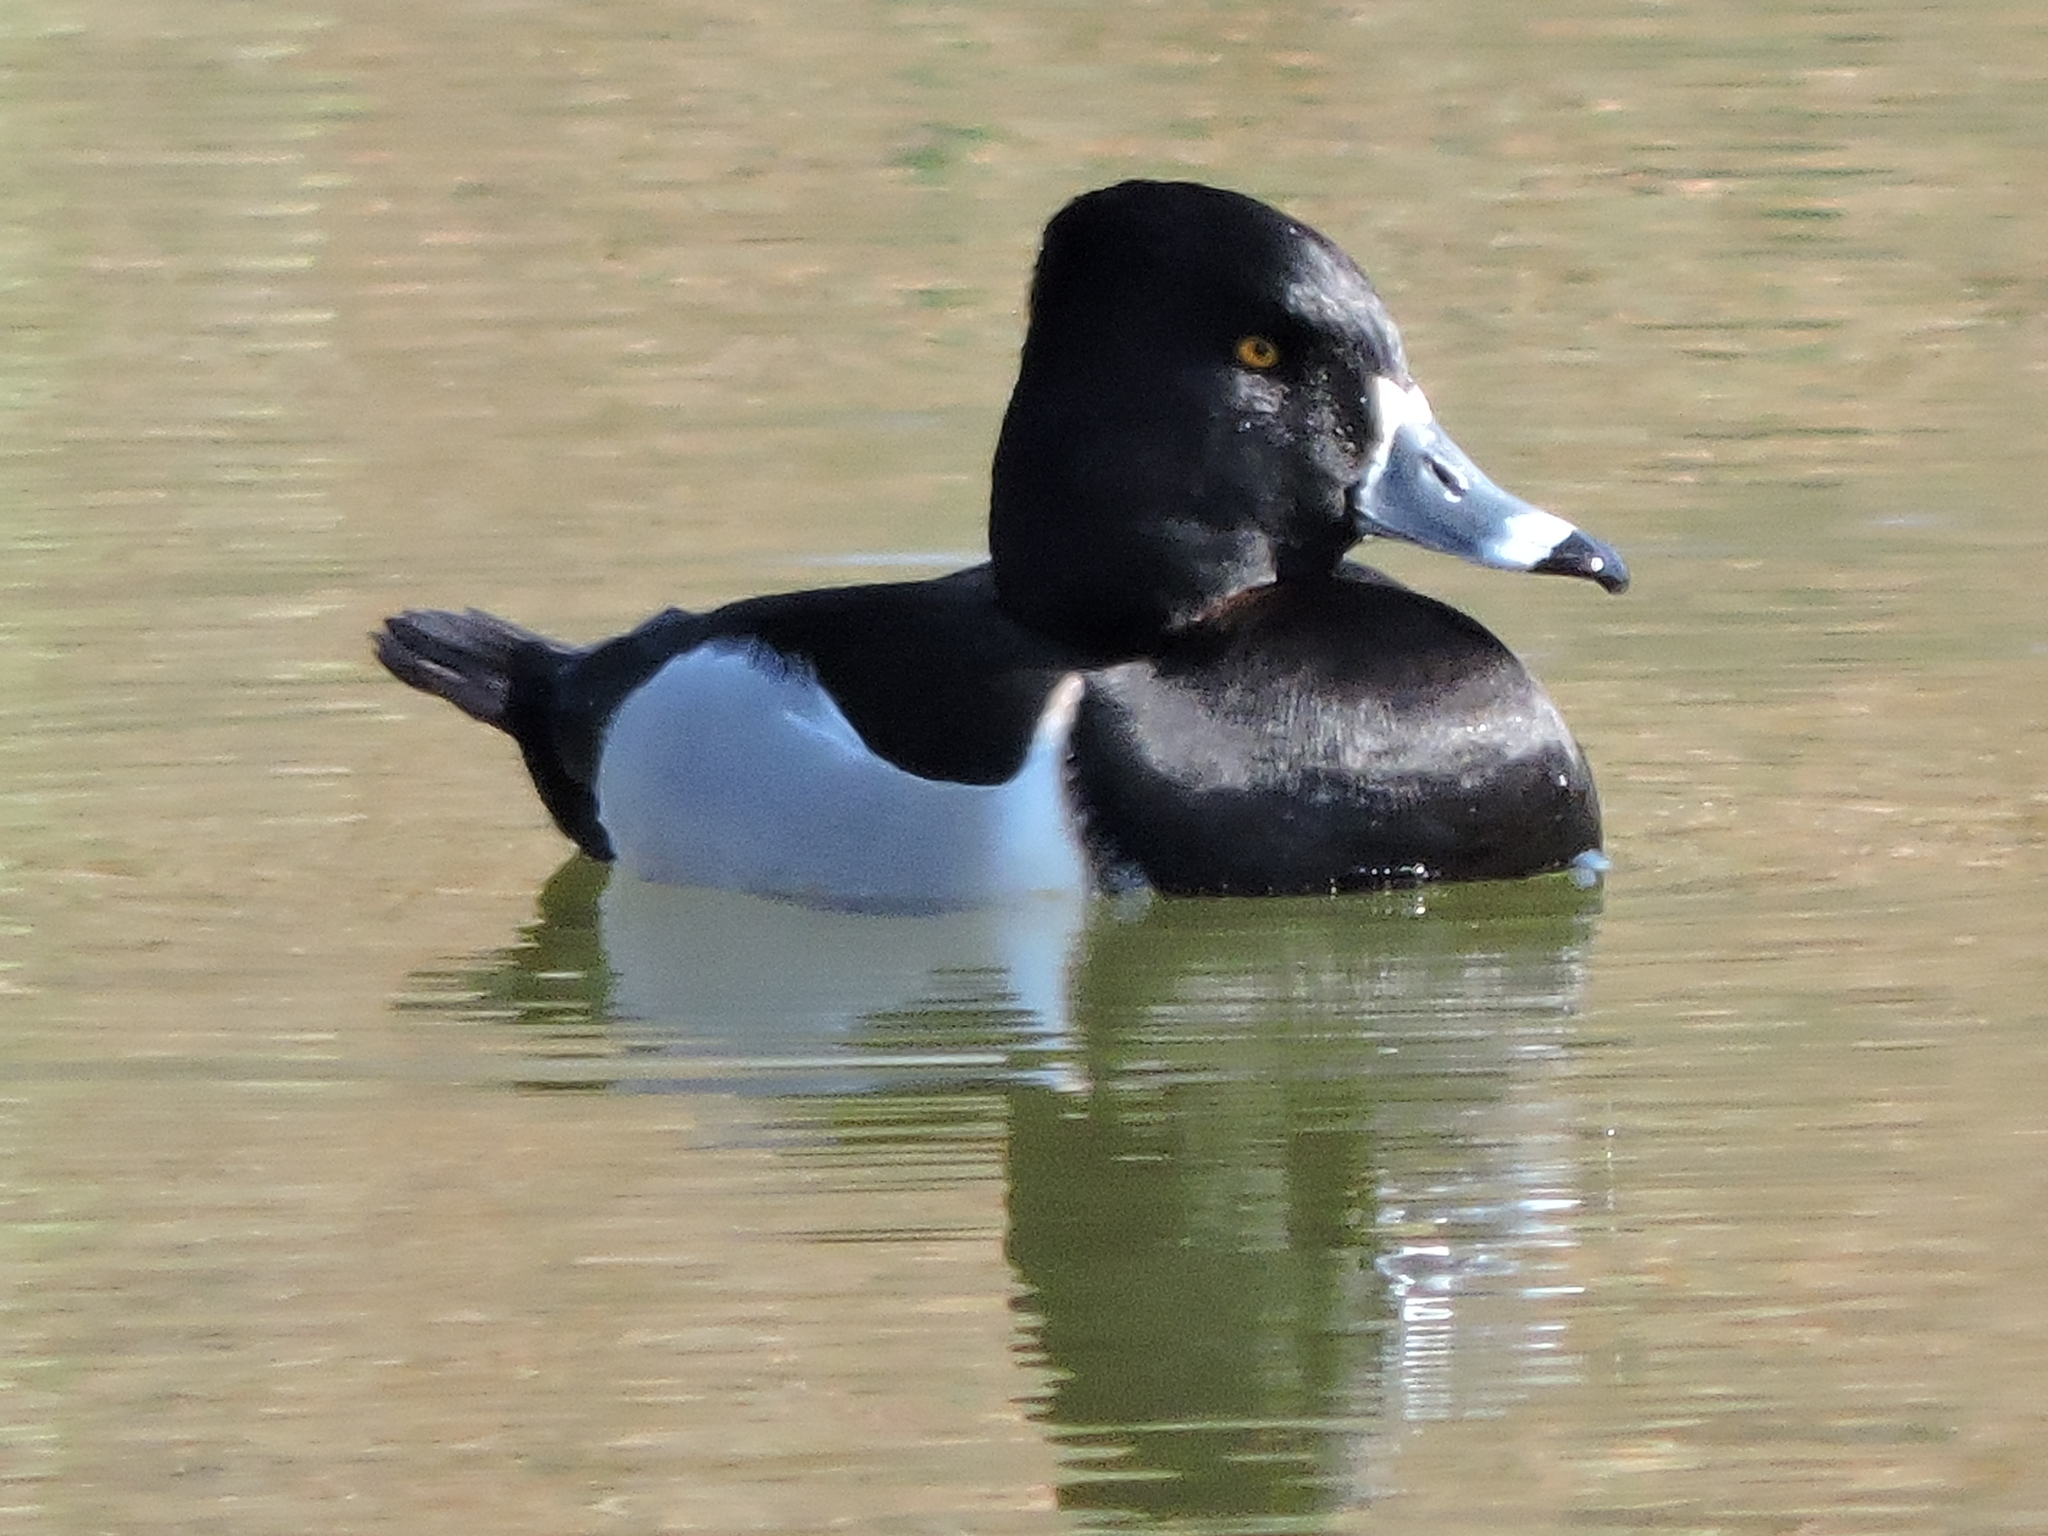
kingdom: Animalia
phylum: Chordata
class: Aves
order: Anseriformes
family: Anatidae
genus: Aythya
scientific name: Aythya collaris
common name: Ring-necked duck
